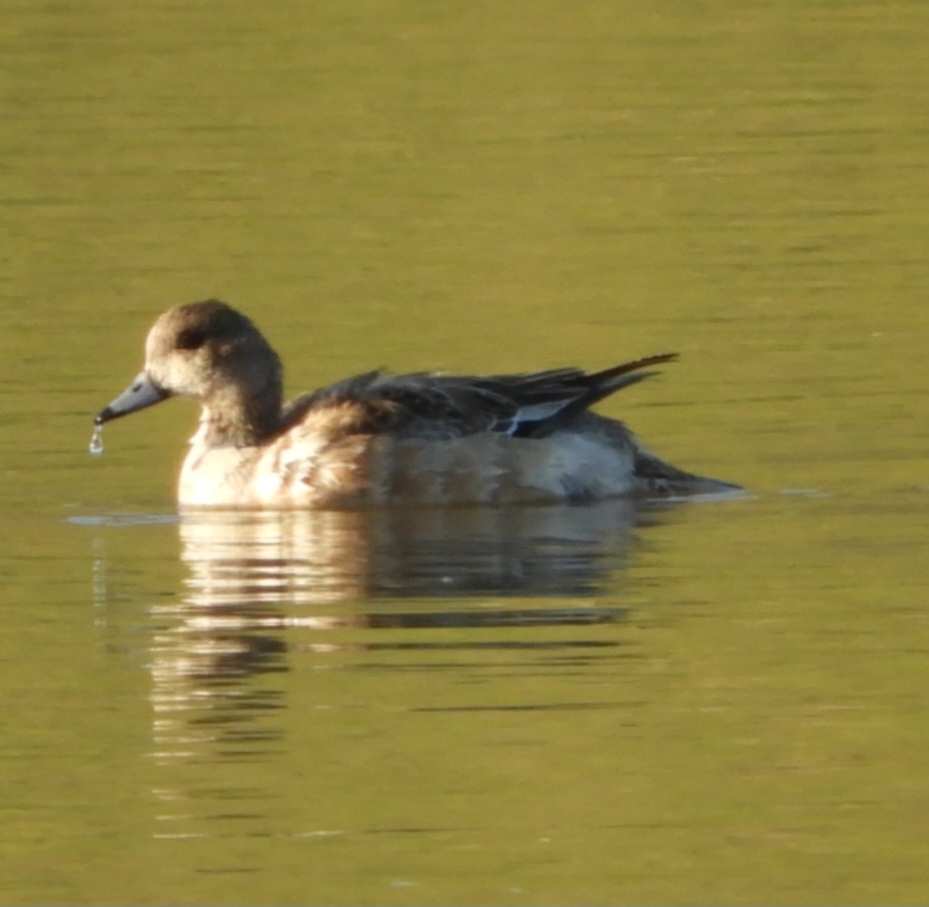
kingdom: Animalia
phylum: Chordata
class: Aves
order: Anseriformes
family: Anatidae
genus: Mareca
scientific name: Mareca americana
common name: American wigeon
